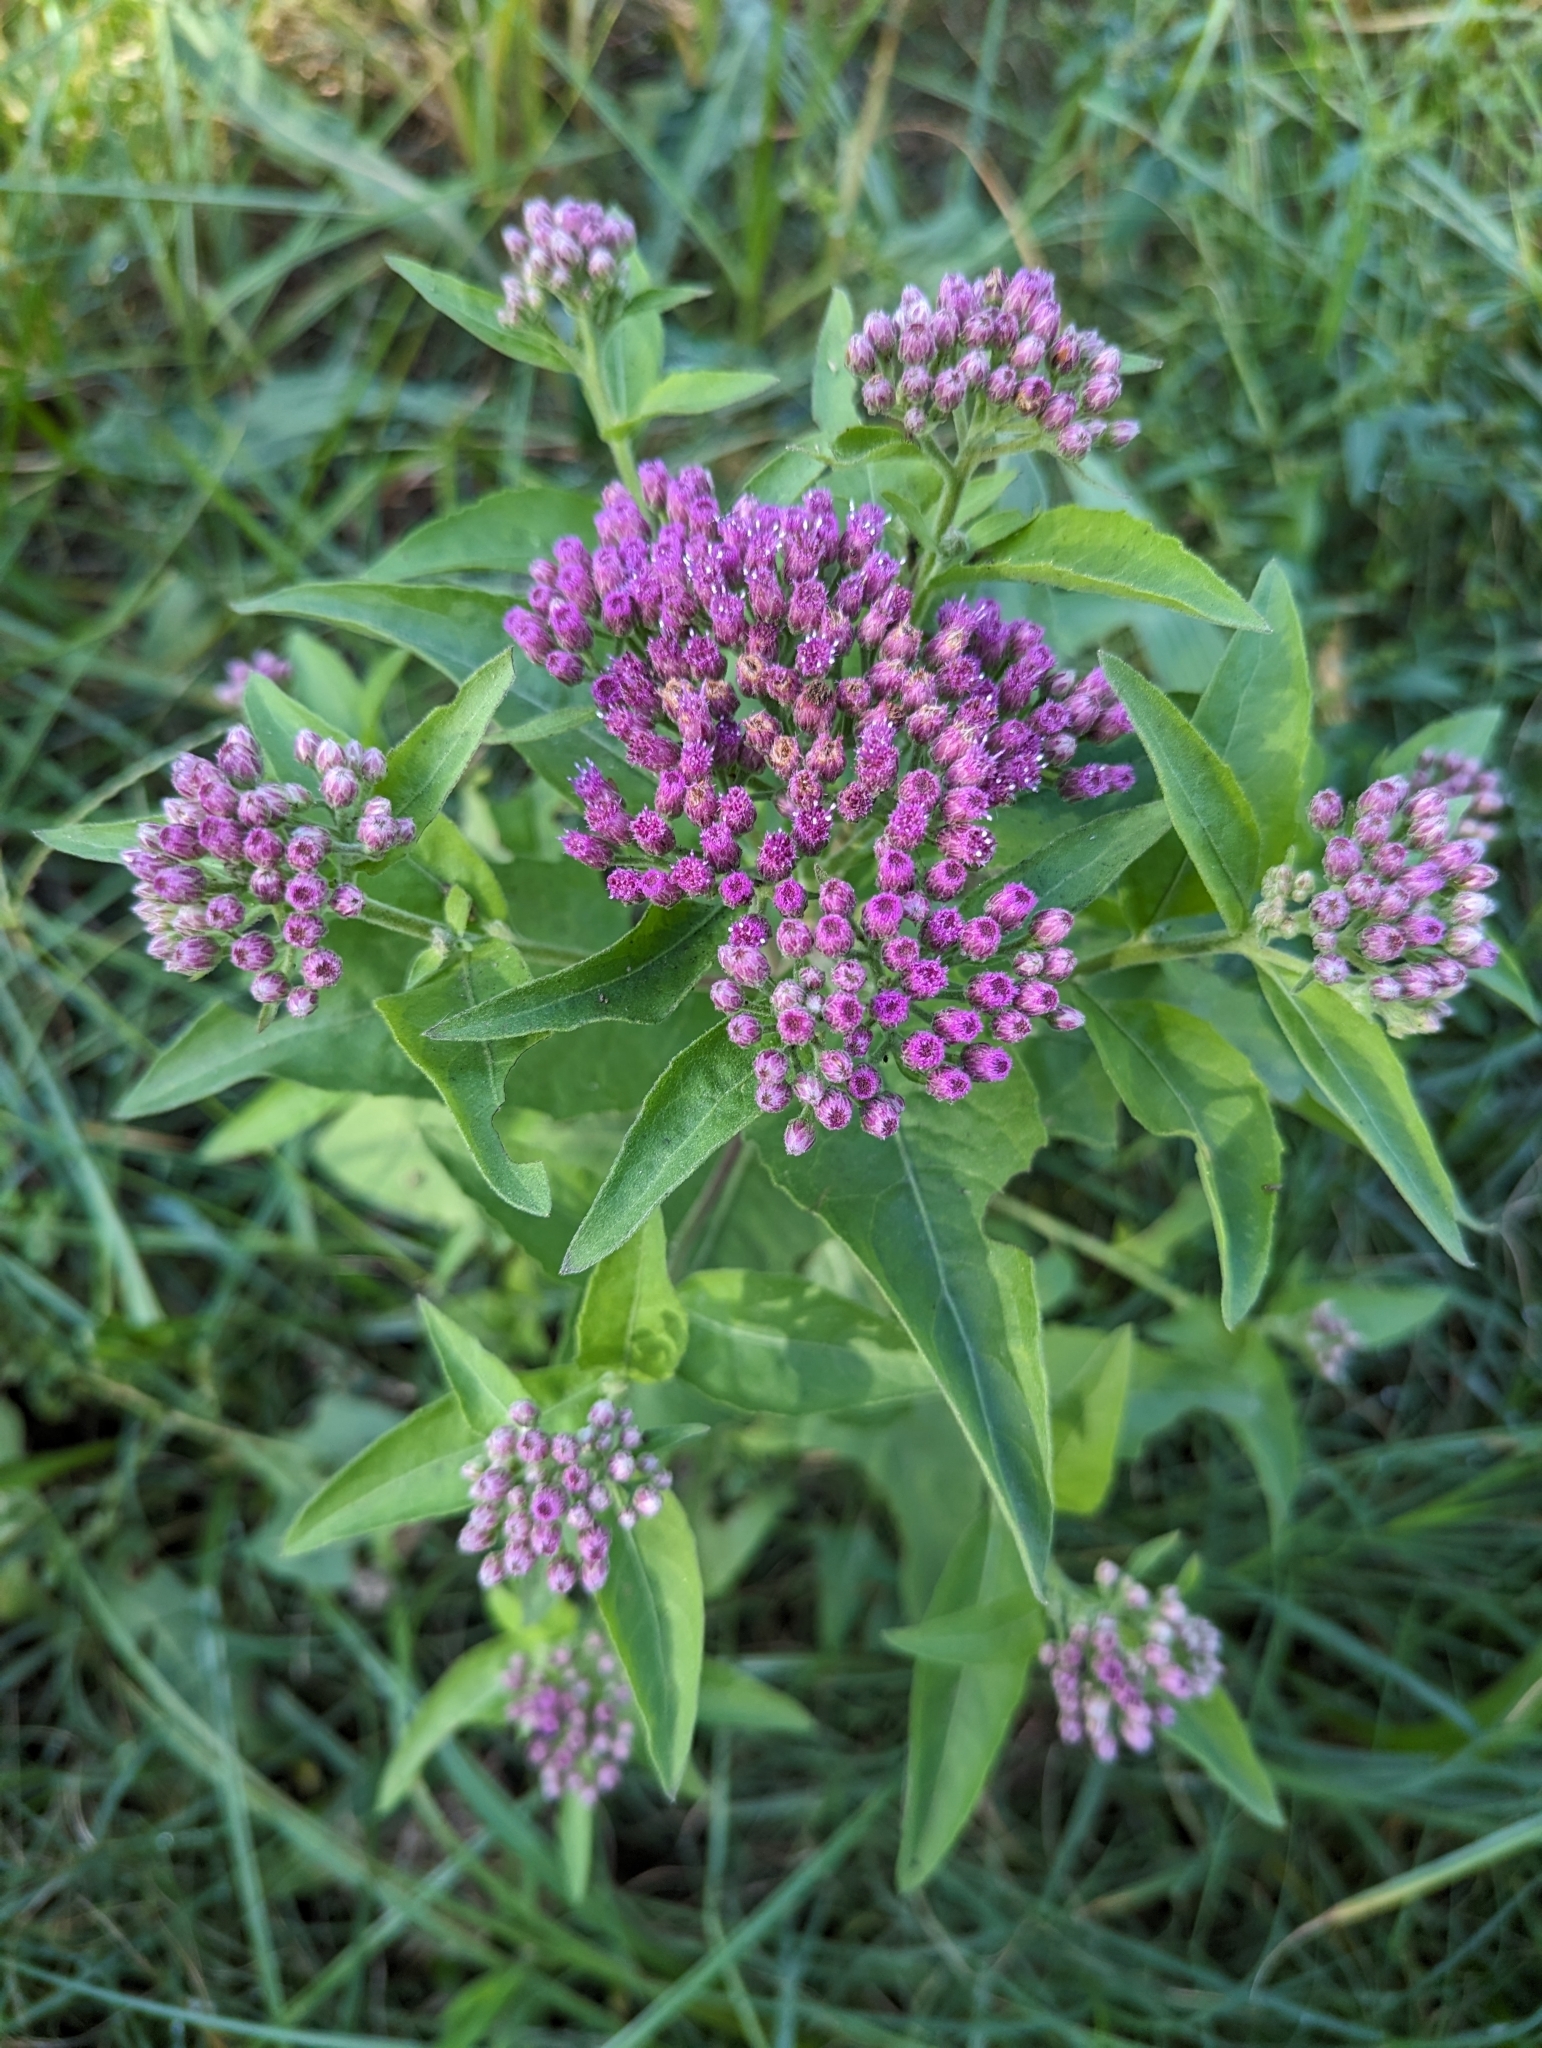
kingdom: Plantae
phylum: Tracheophyta
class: Magnoliopsida
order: Asterales
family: Asteraceae
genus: Pluchea
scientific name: Pluchea odorata
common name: Saltmarsh fleabane
